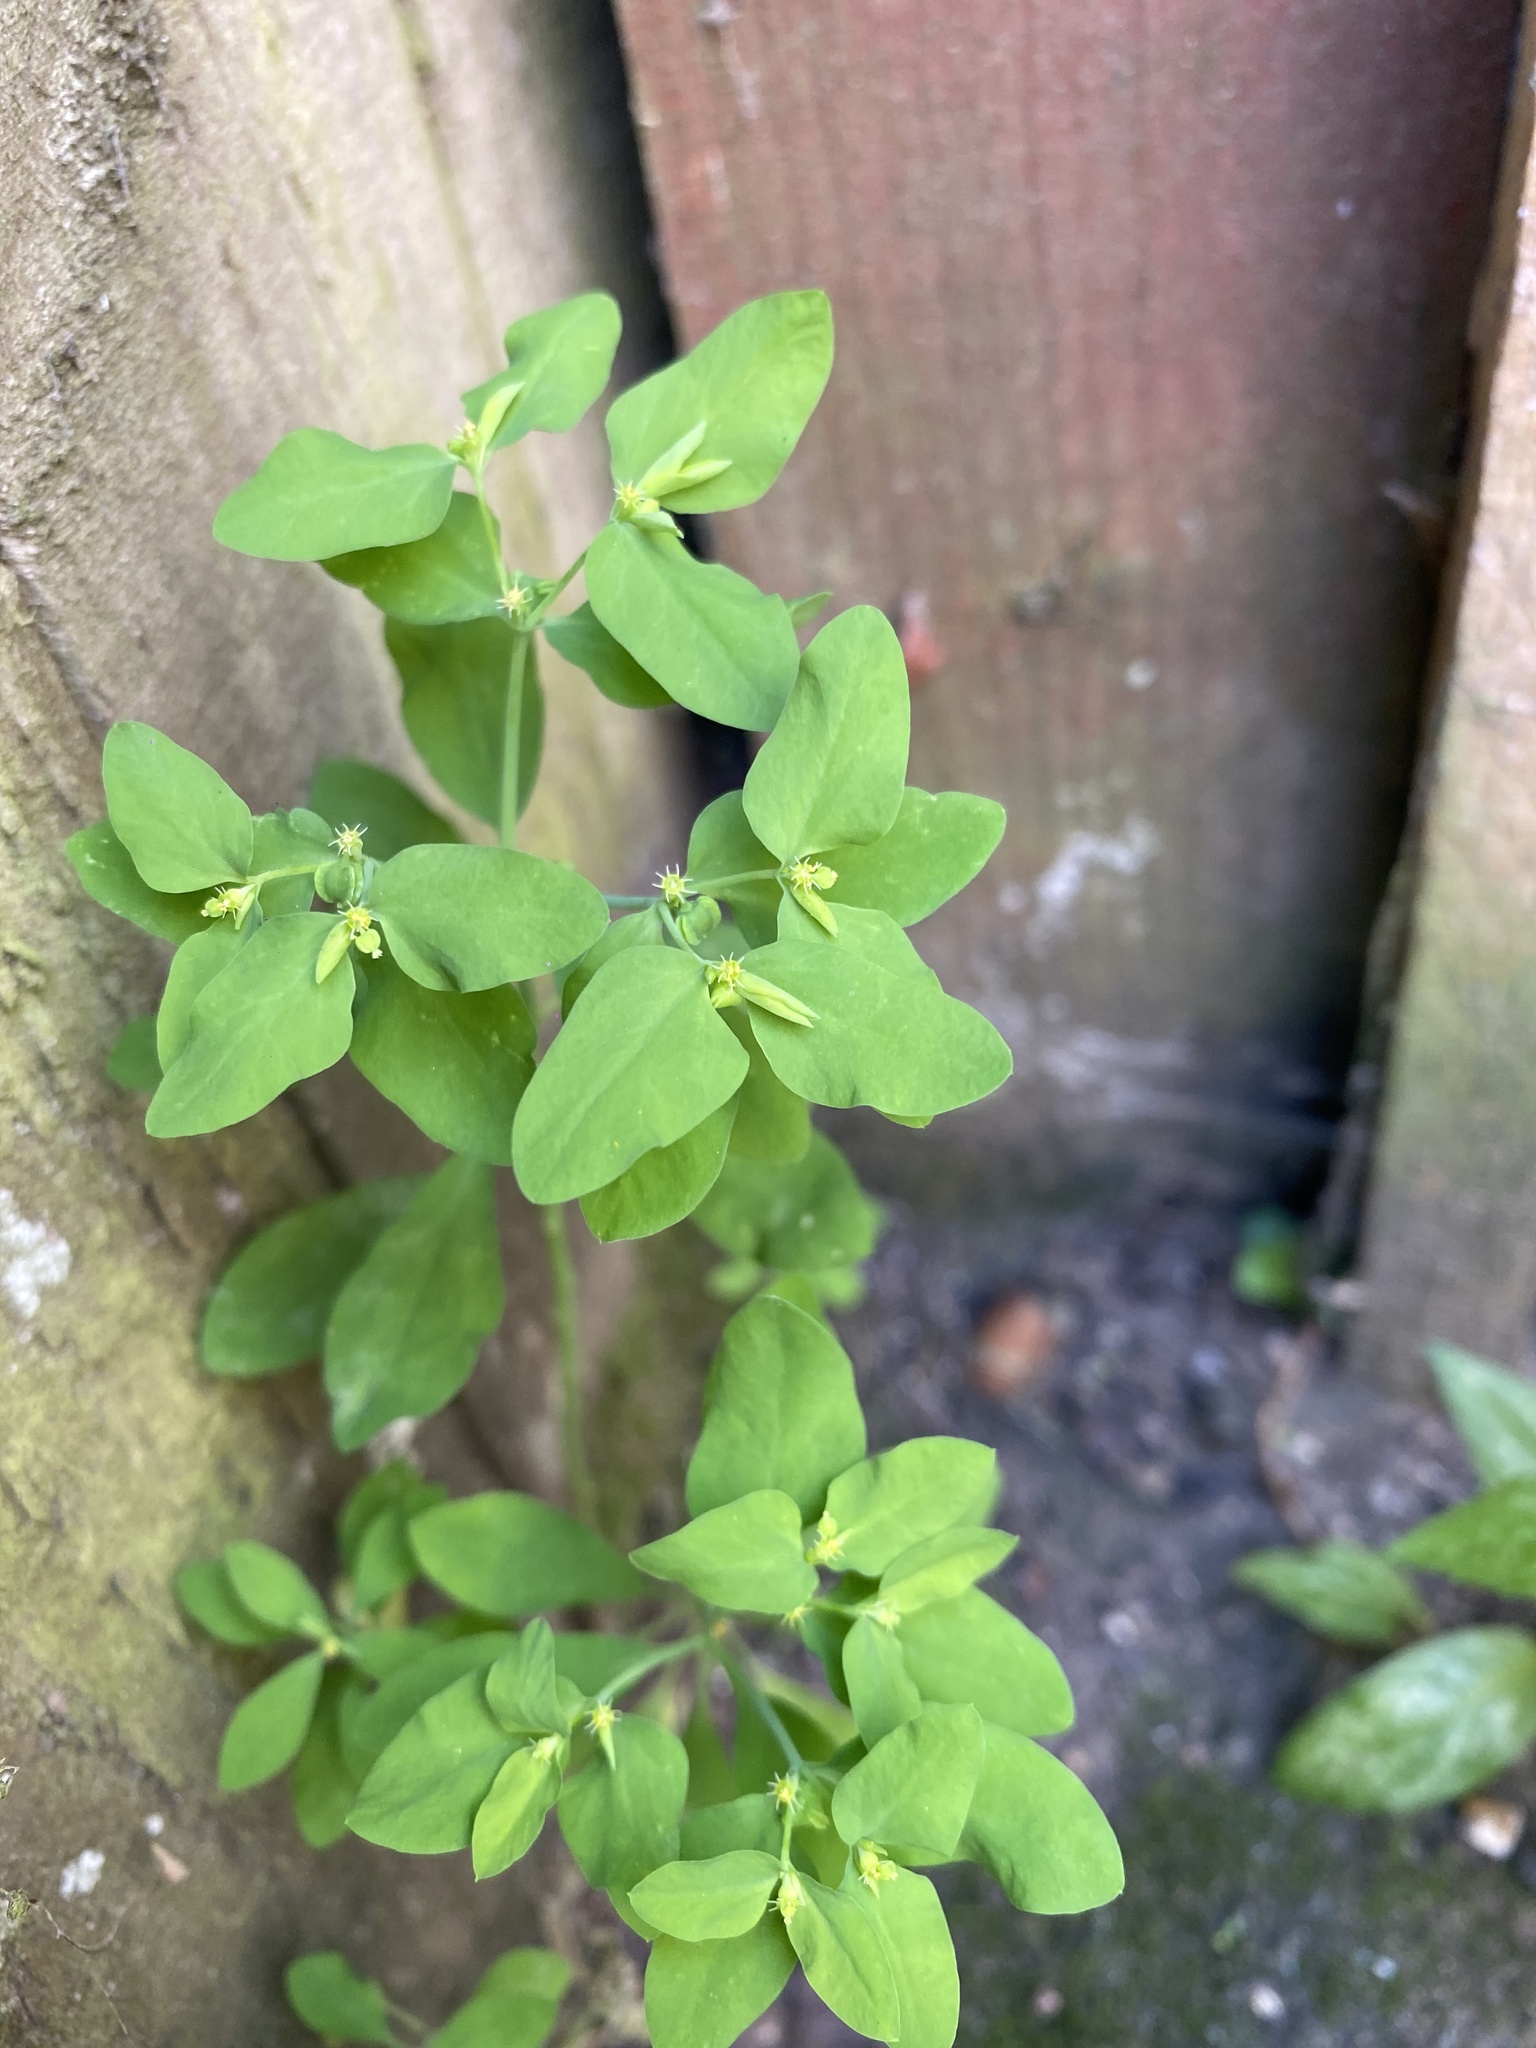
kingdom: Plantae
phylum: Tracheophyta
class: Magnoliopsida
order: Malpighiales
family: Euphorbiaceae
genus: Euphorbia
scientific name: Euphorbia peplus
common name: Petty spurge
